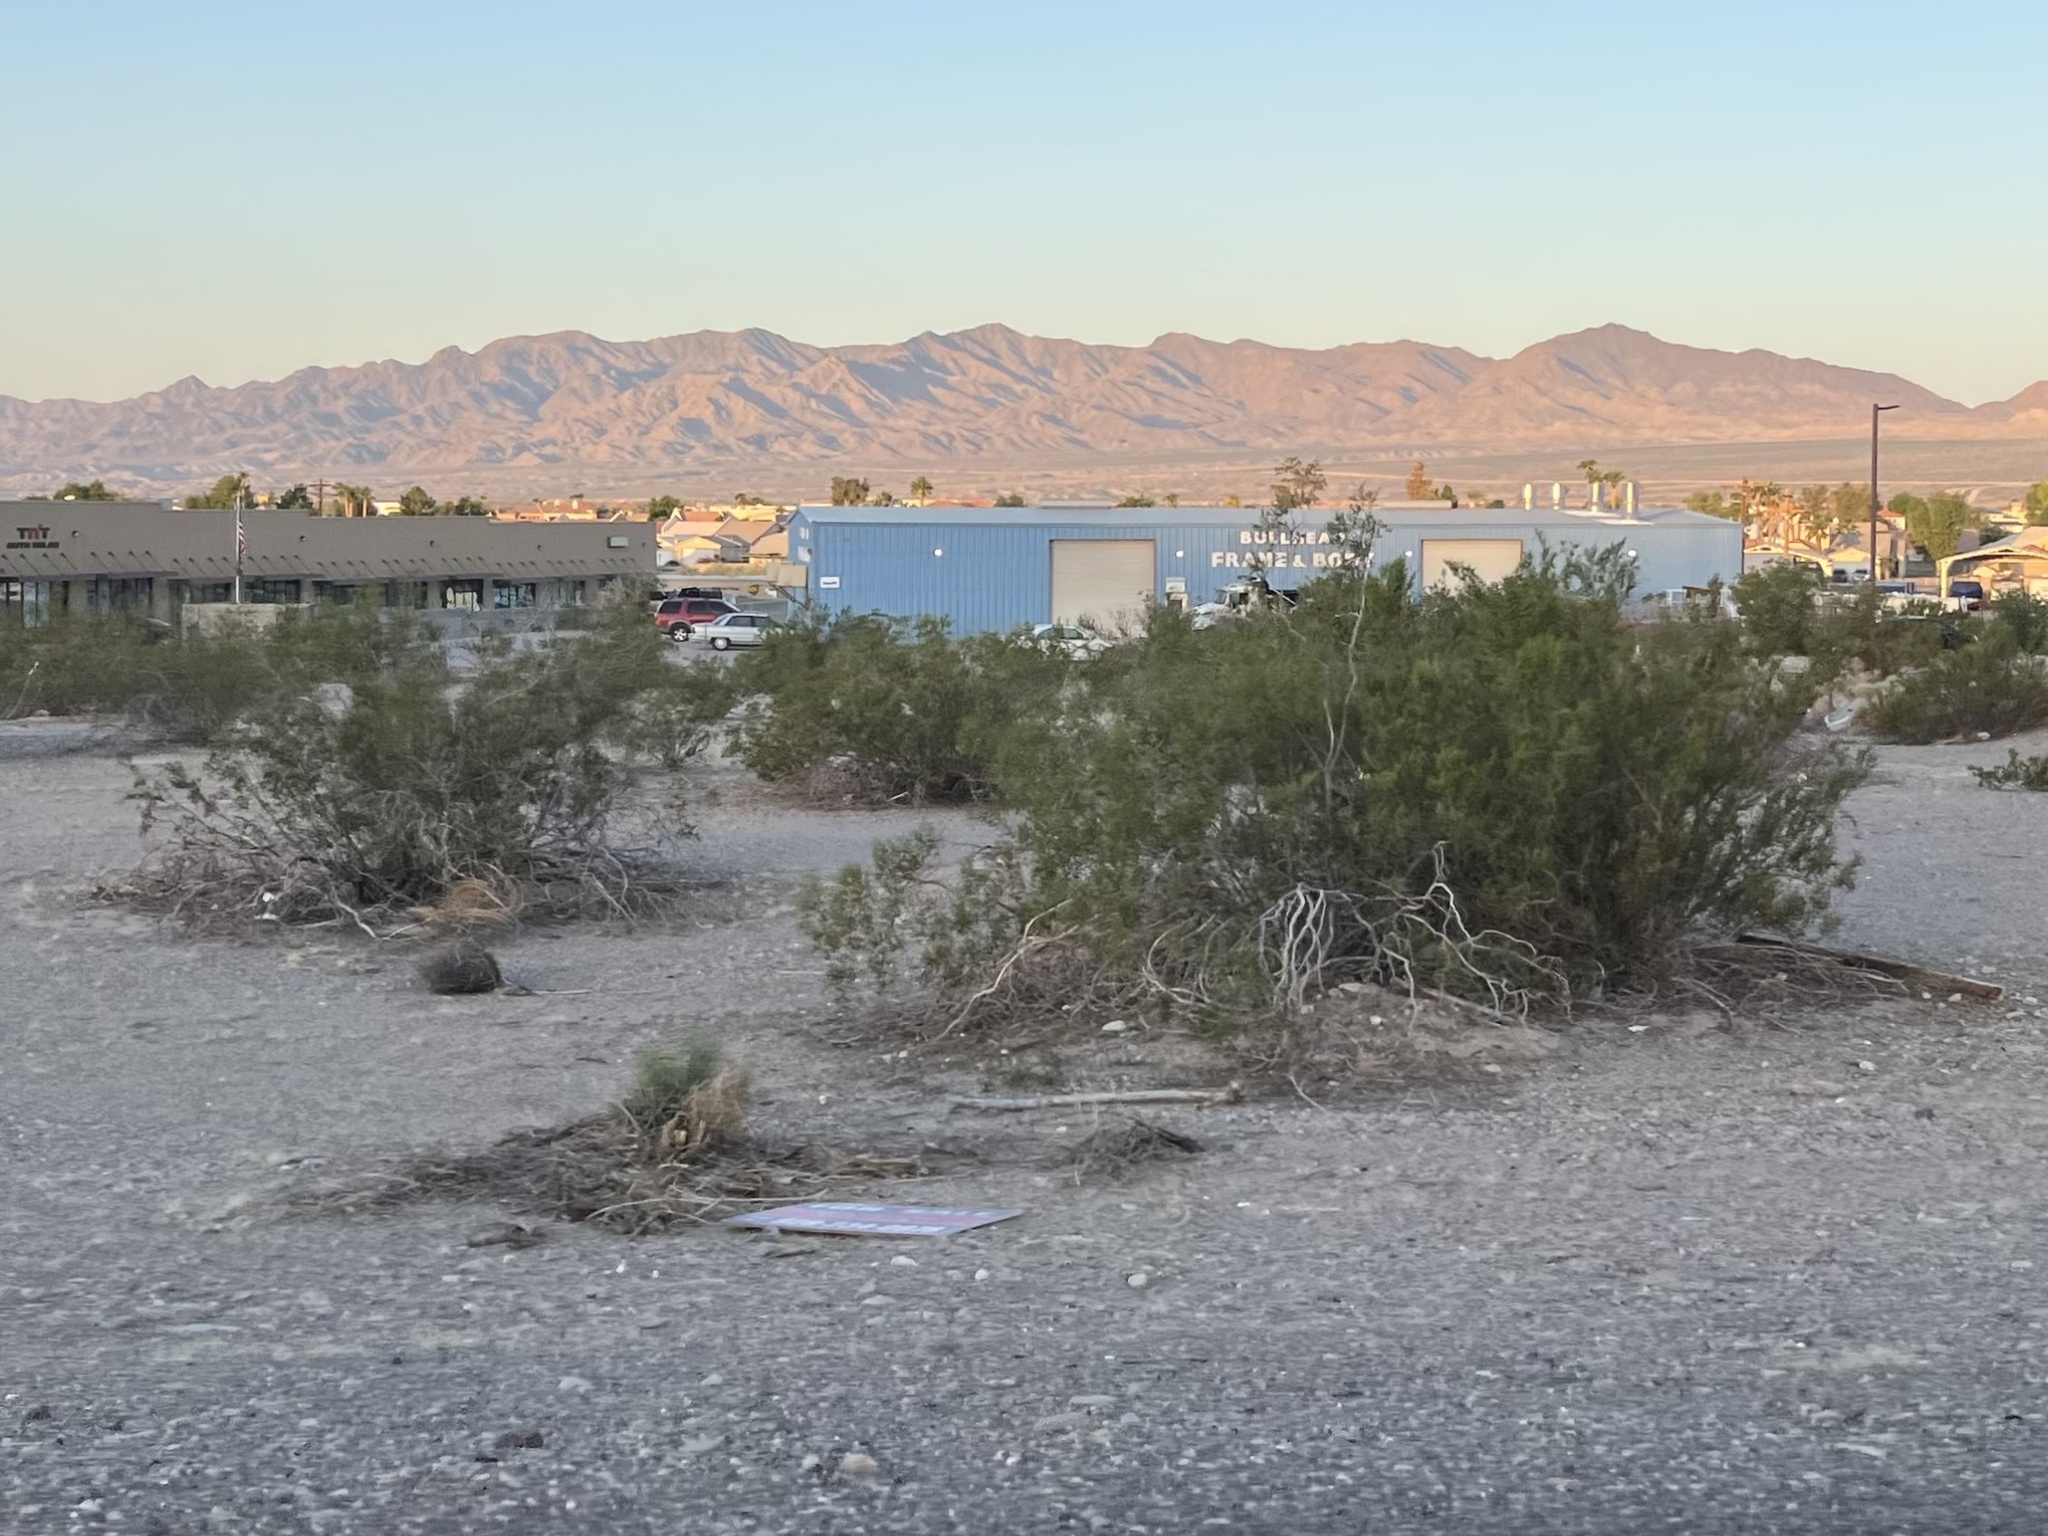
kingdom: Plantae
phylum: Tracheophyta
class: Magnoliopsida
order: Zygophyllales
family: Zygophyllaceae
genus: Larrea
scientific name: Larrea tridentata
